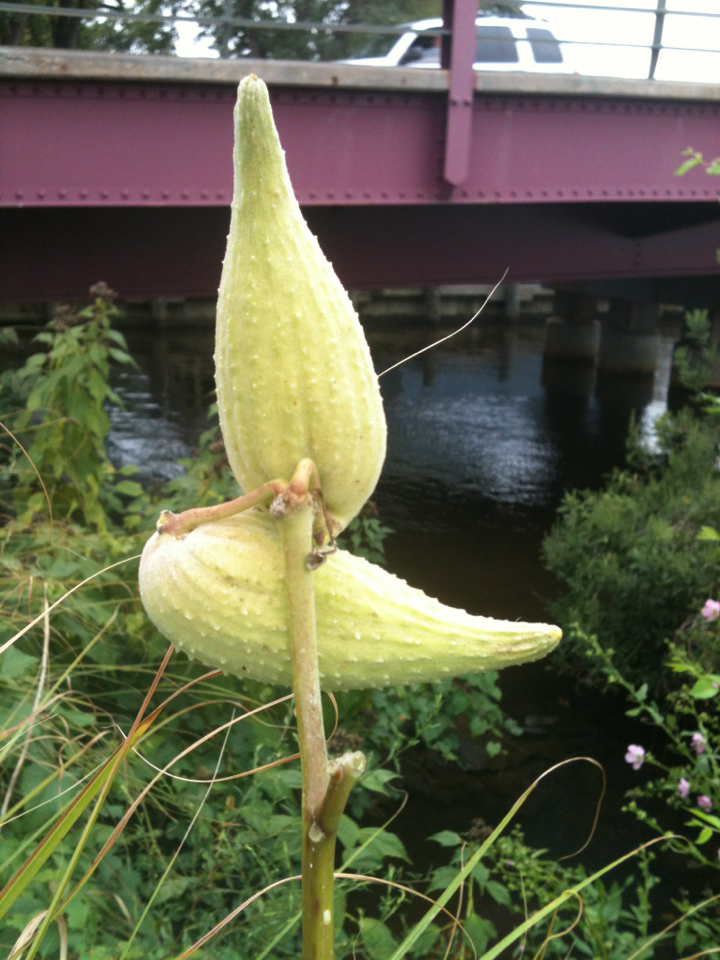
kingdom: Plantae
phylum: Tracheophyta
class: Magnoliopsida
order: Gentianales
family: Apocynaceae
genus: Asclepias
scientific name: Asclepias syriaca
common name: Common milkweed
